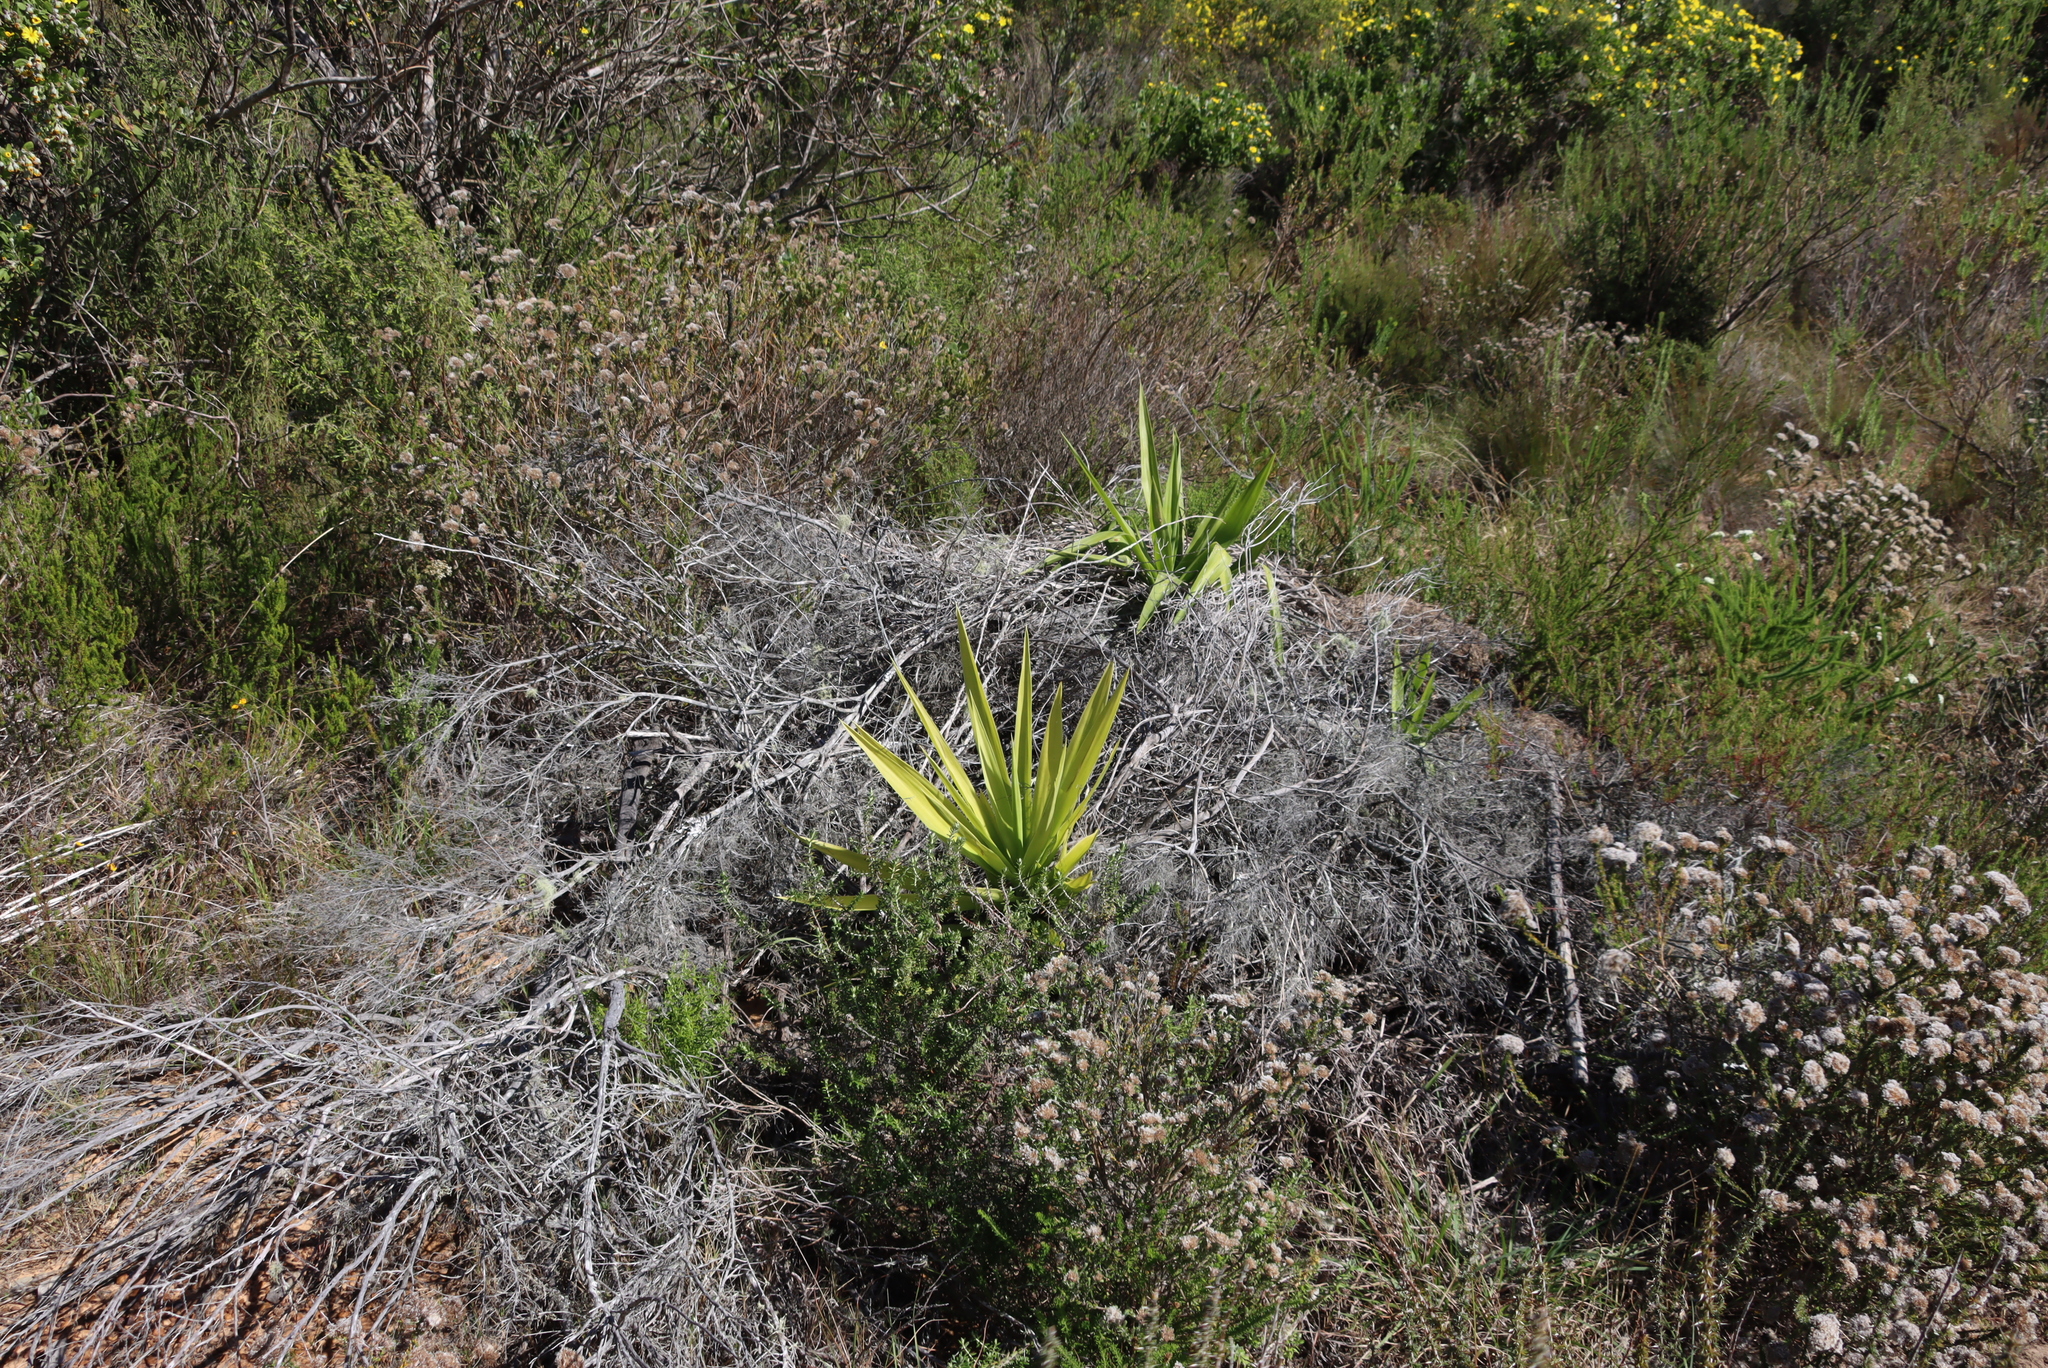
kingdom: Plantae
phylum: Tracheophyta
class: Liliopsida
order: Asparagales
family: Asparagaceae
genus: Yucca
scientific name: Yucca gigantea
